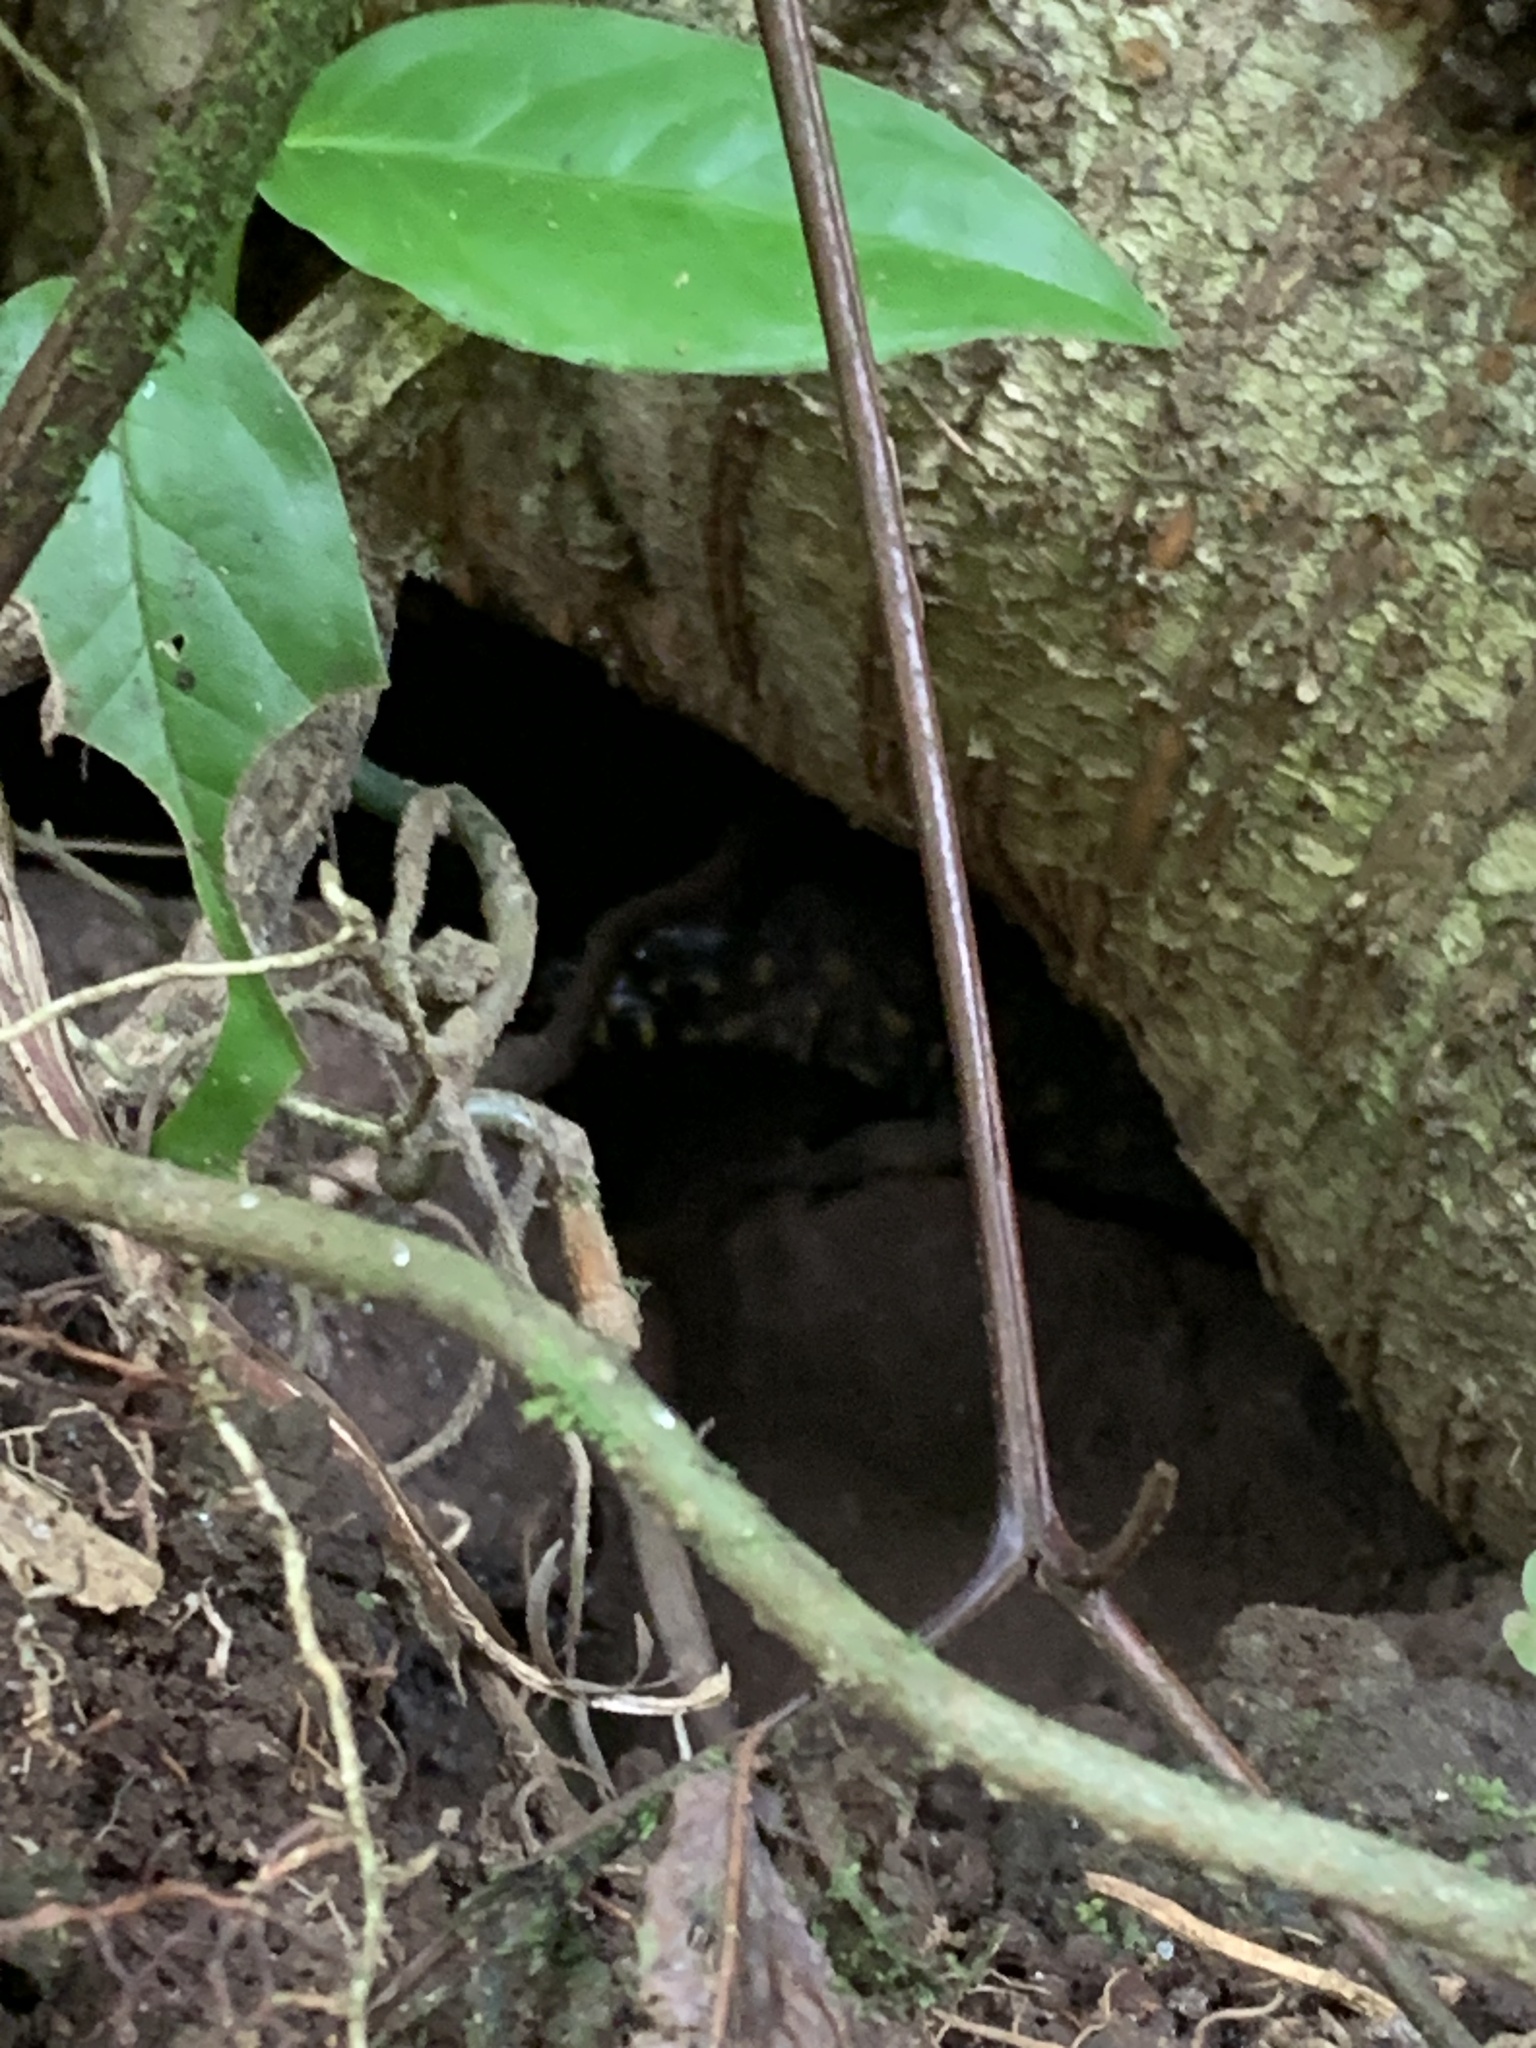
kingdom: Animalia
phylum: Chordata
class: Squamata
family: Xantusiidae
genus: Lepidophyma
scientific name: Lepidophyma flavimaculatum
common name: Yellow-spotted night lizard
